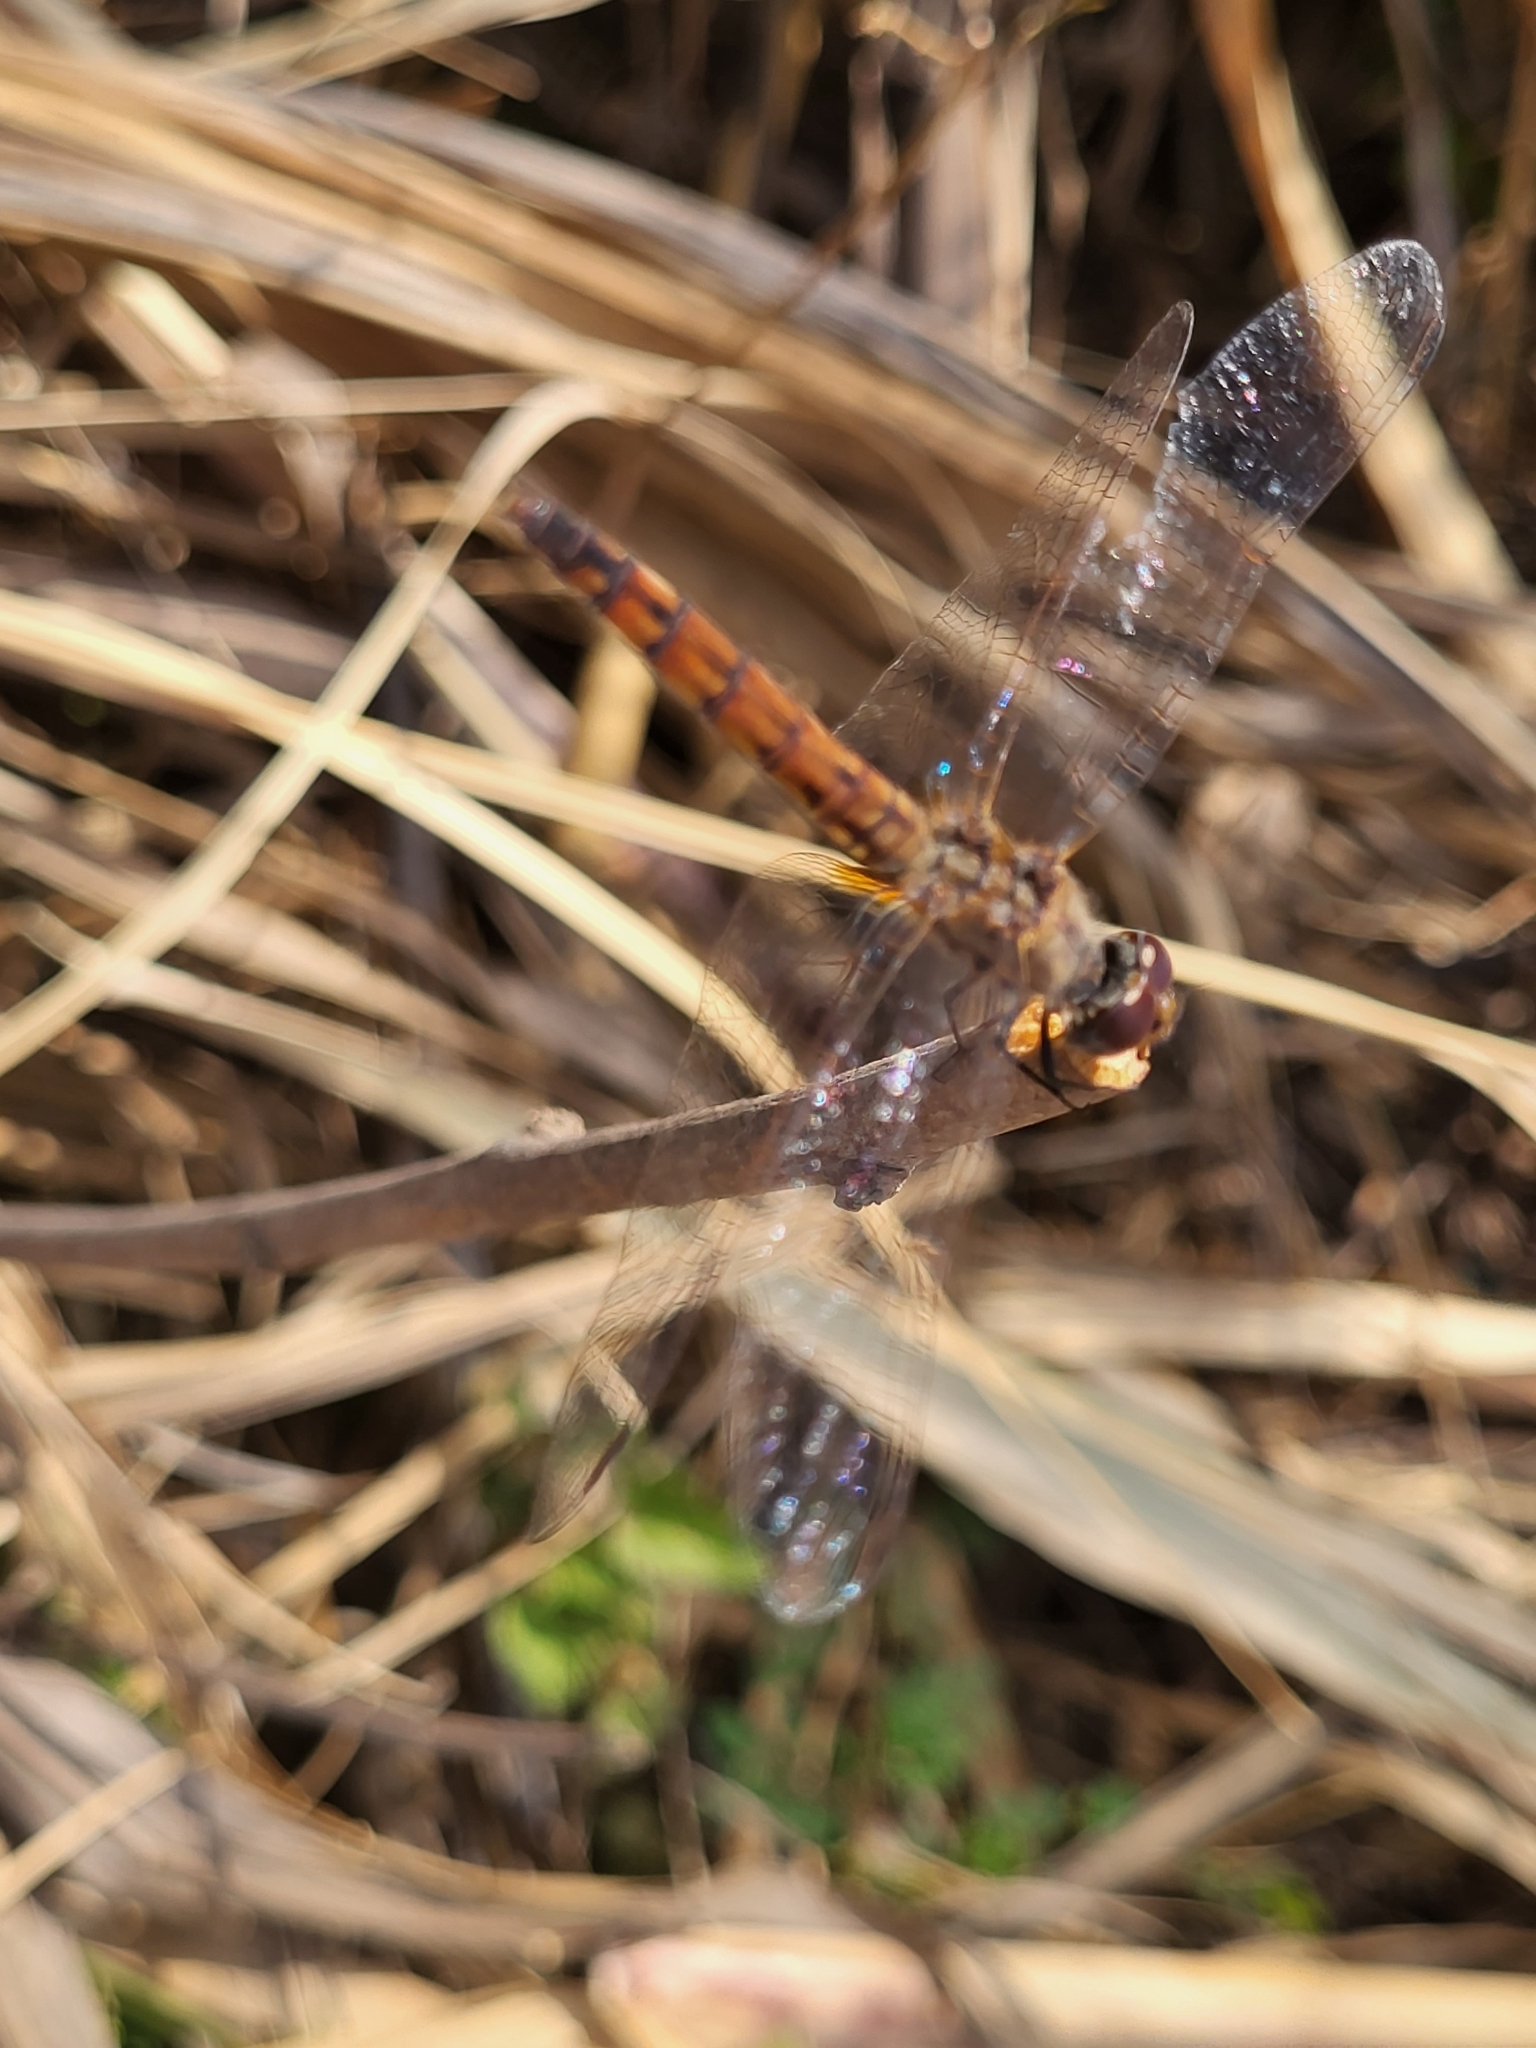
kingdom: Animalia
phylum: Arthropoda
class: Insecta
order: Odonata
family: Libellulidae
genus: Trithemis
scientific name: Trithemis annulata
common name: Violet dropwing
